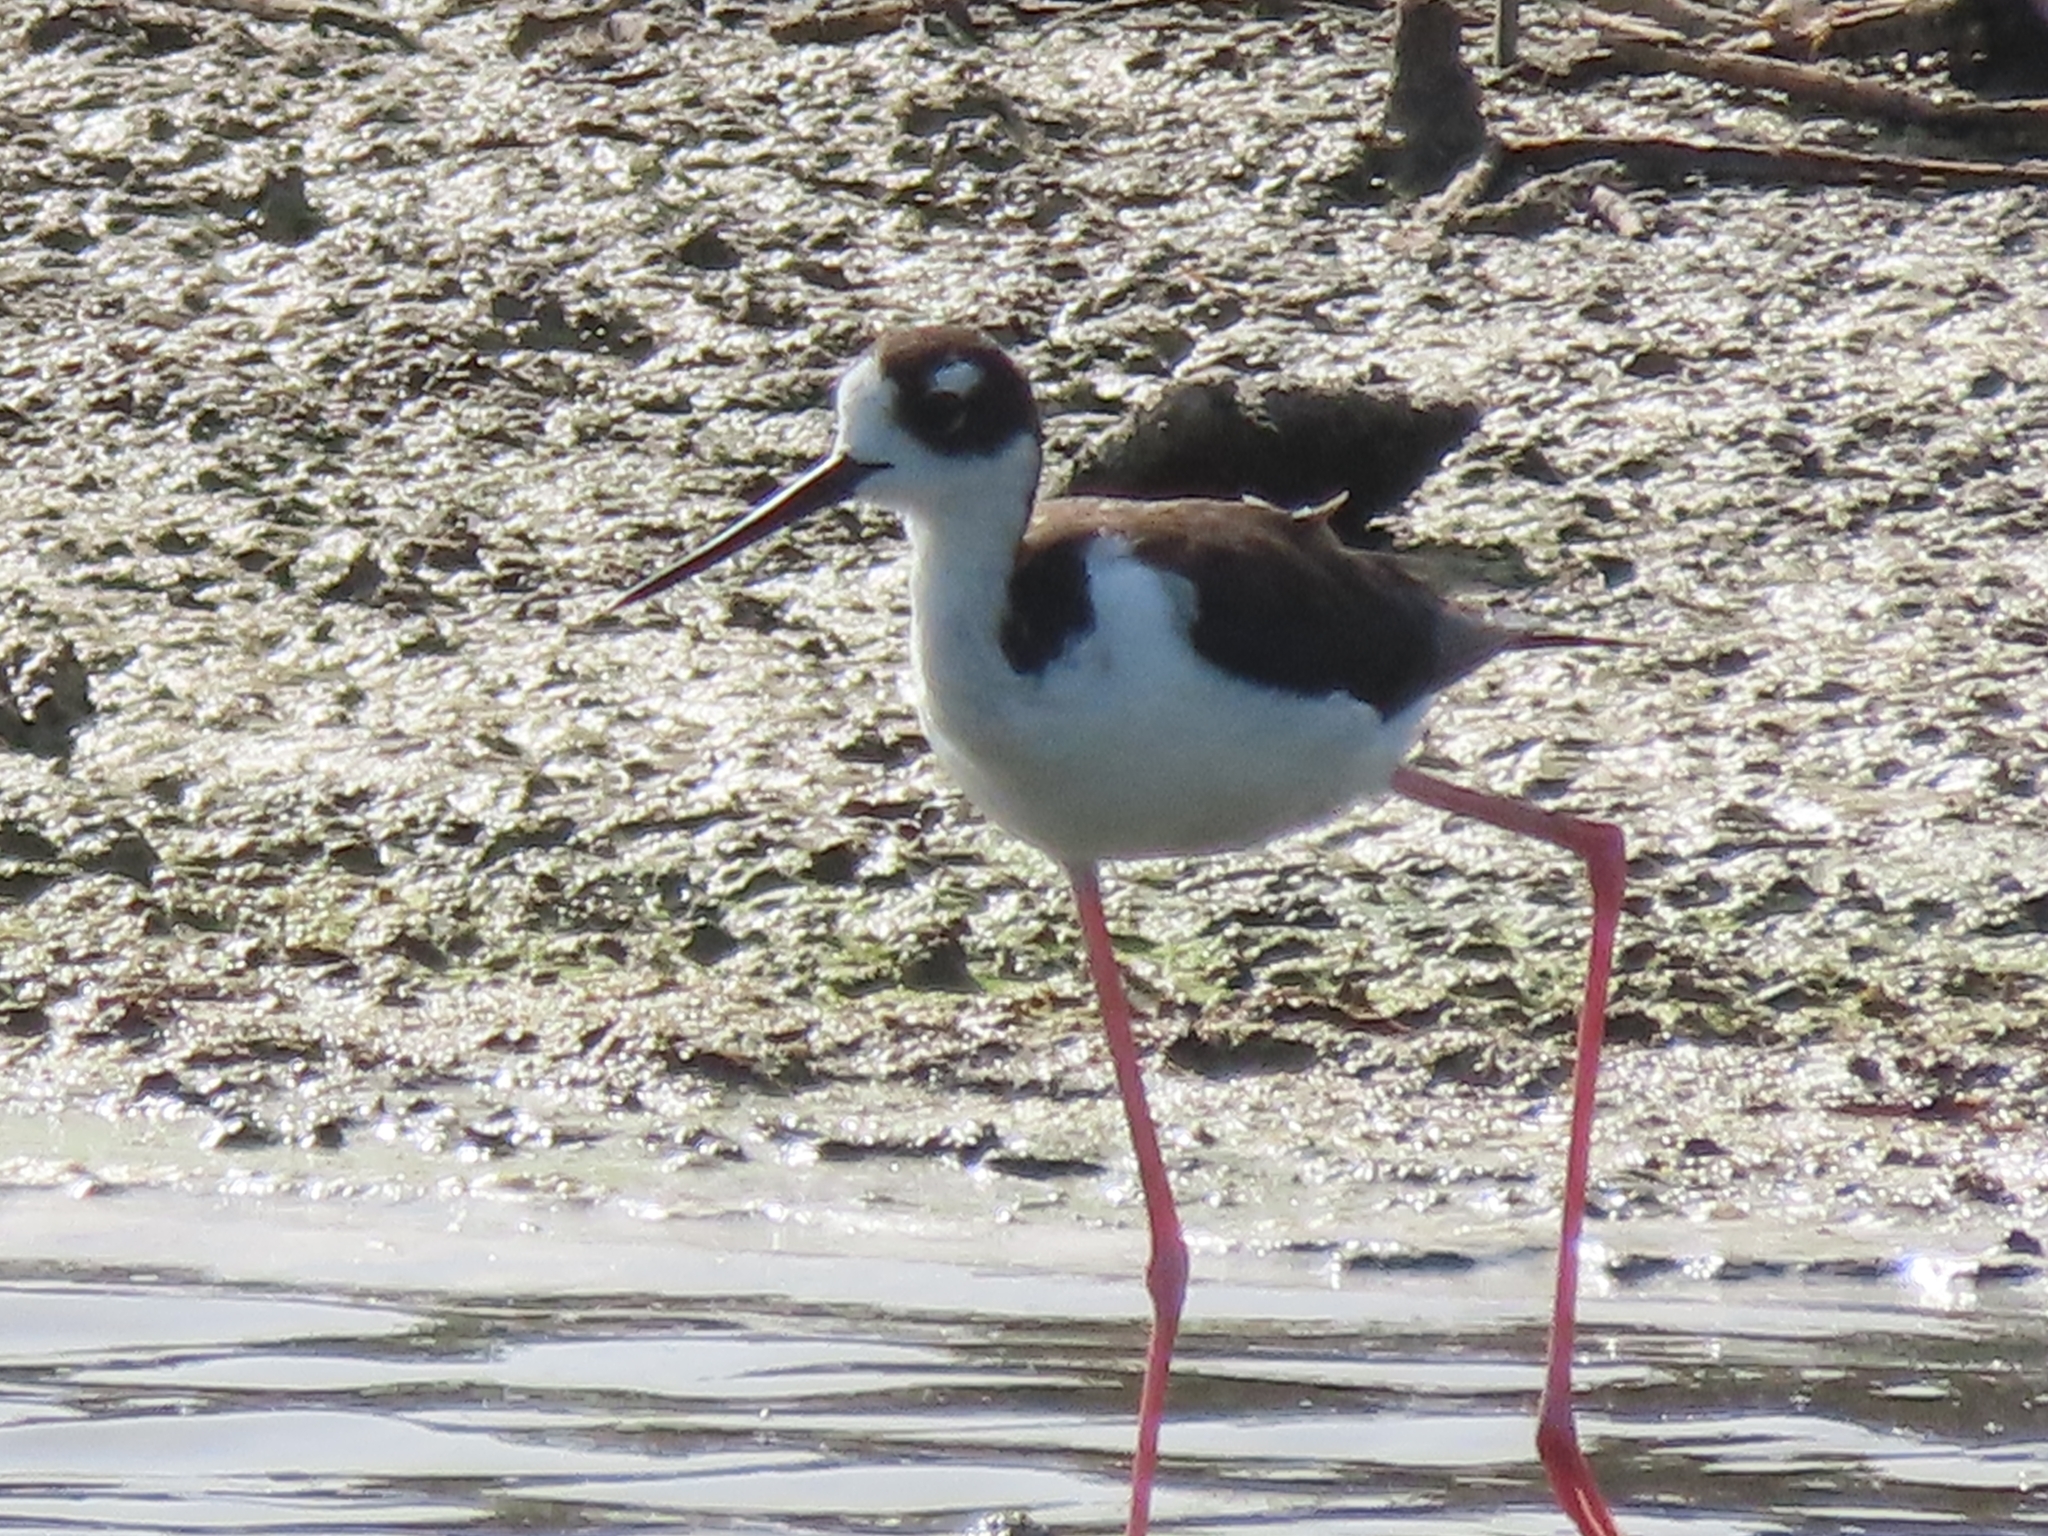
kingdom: Animalia
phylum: Chordata
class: Aves
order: Charadriiformes
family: Recurvirostridae
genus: Himantopus
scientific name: Himantopus mexicanus
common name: Black-necked stilt
